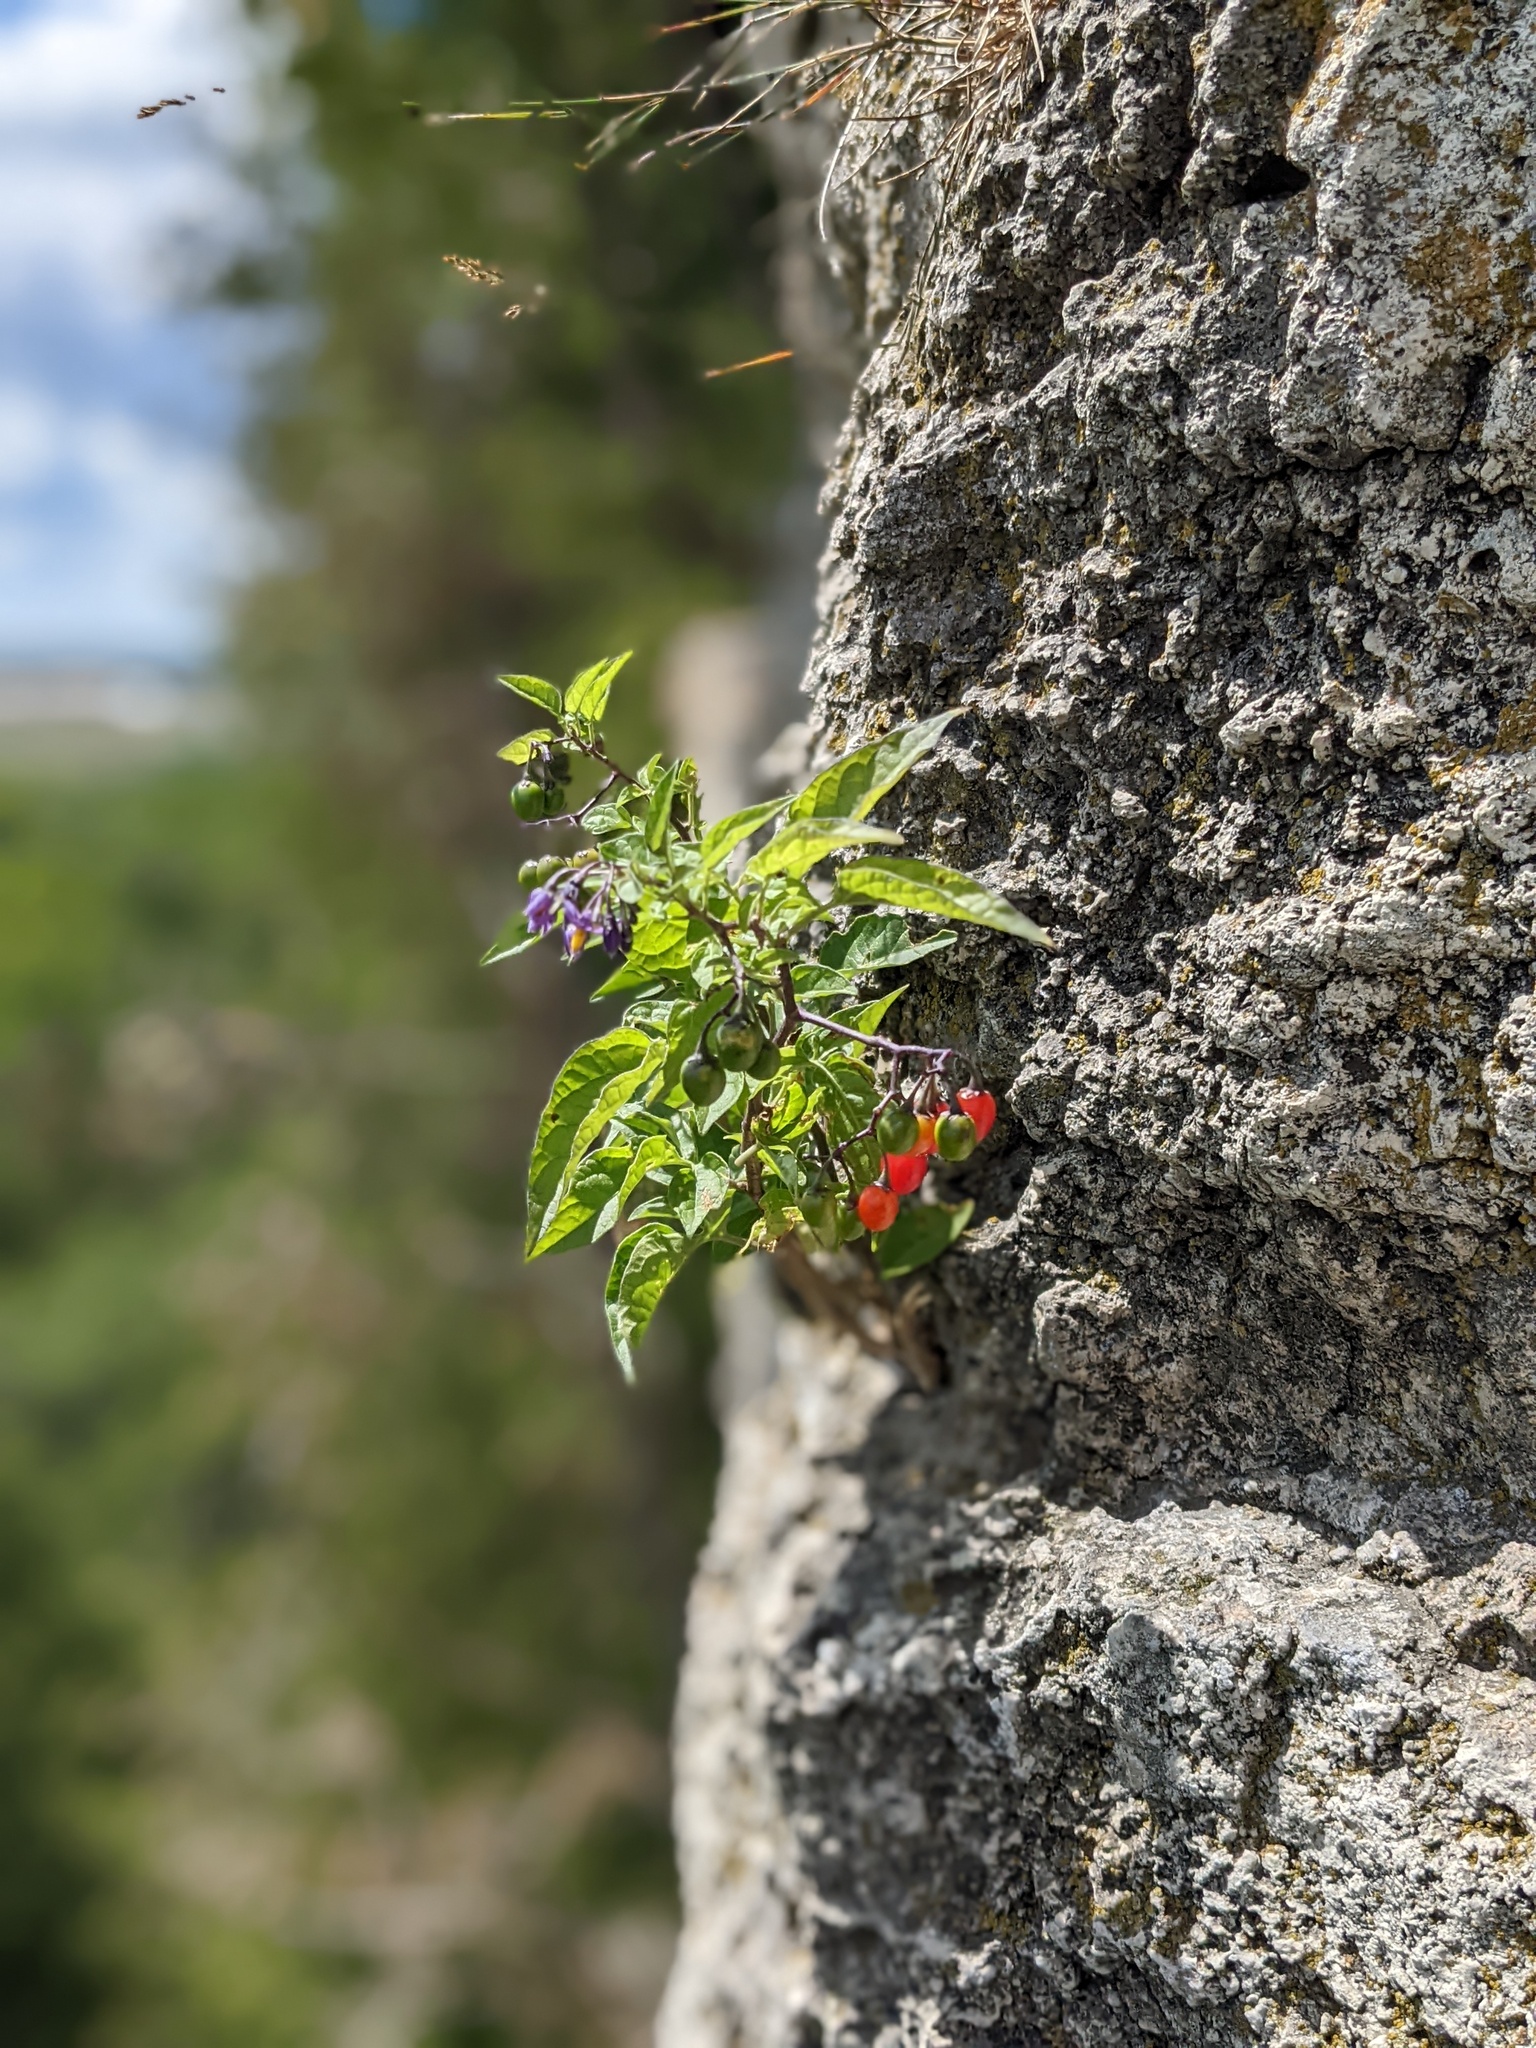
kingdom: Plantae
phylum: Tracheophyta
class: Magnoliopsida
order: Solanales
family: Solanaceae
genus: Solanum
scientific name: Solanum dulcamara
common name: Climbing nightshade
